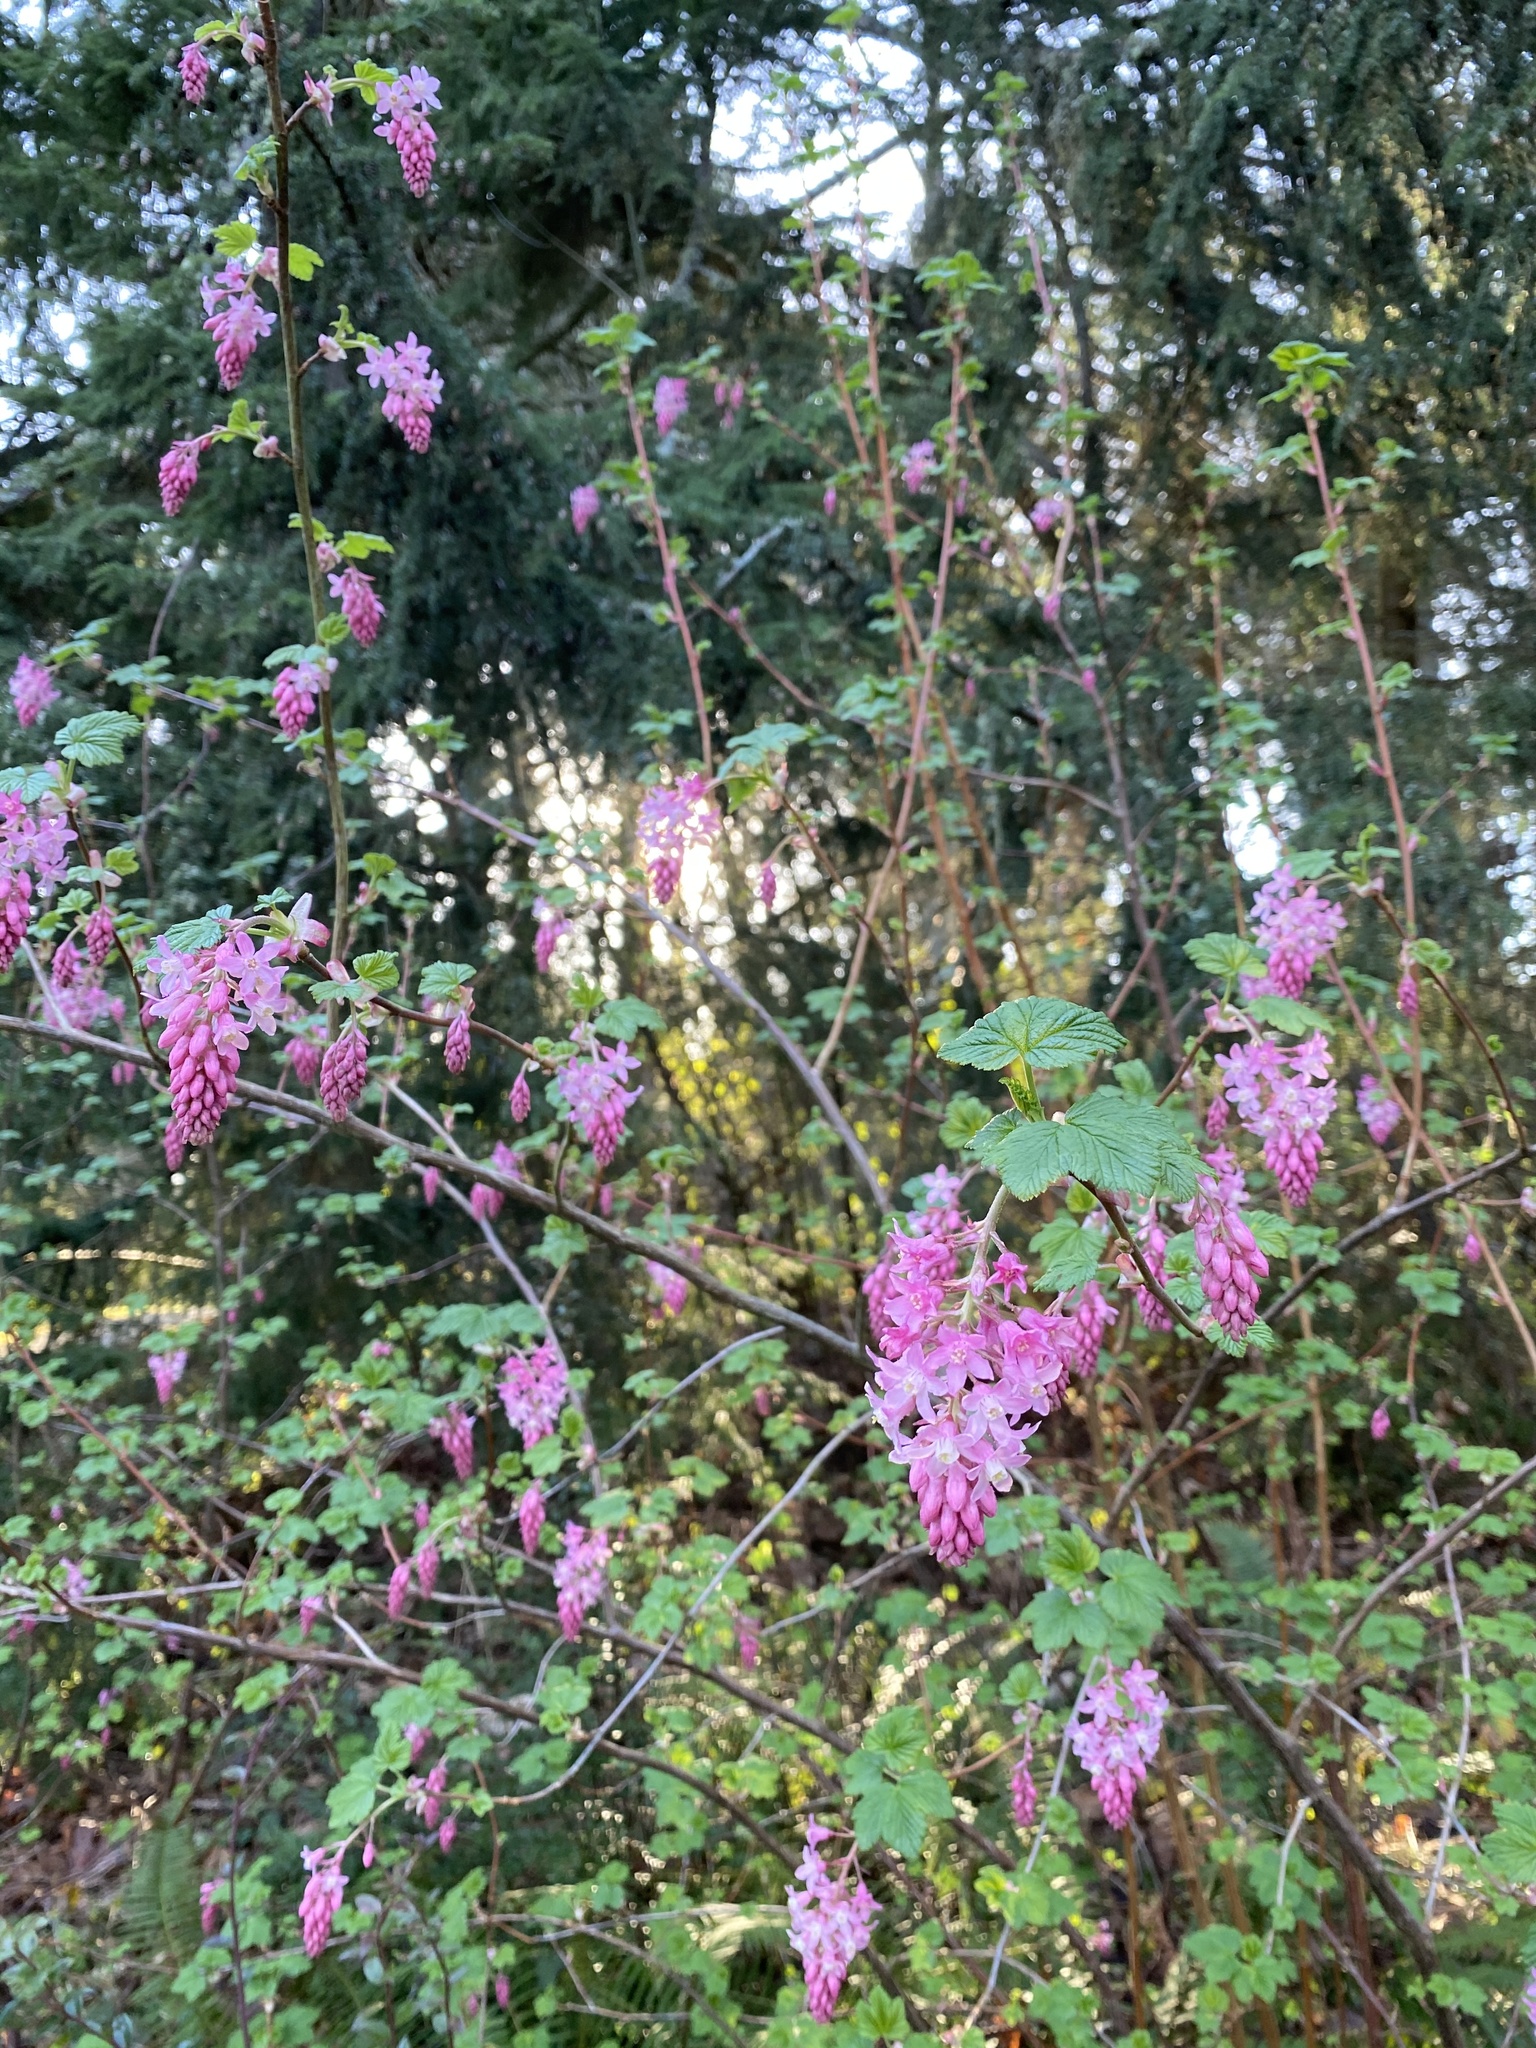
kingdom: Plantae
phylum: Tracheophyta
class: Magnoliopsida
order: Saxifragales
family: Grossulariaceae
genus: Ribes
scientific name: Ribes sanguineum
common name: Flowering currant
